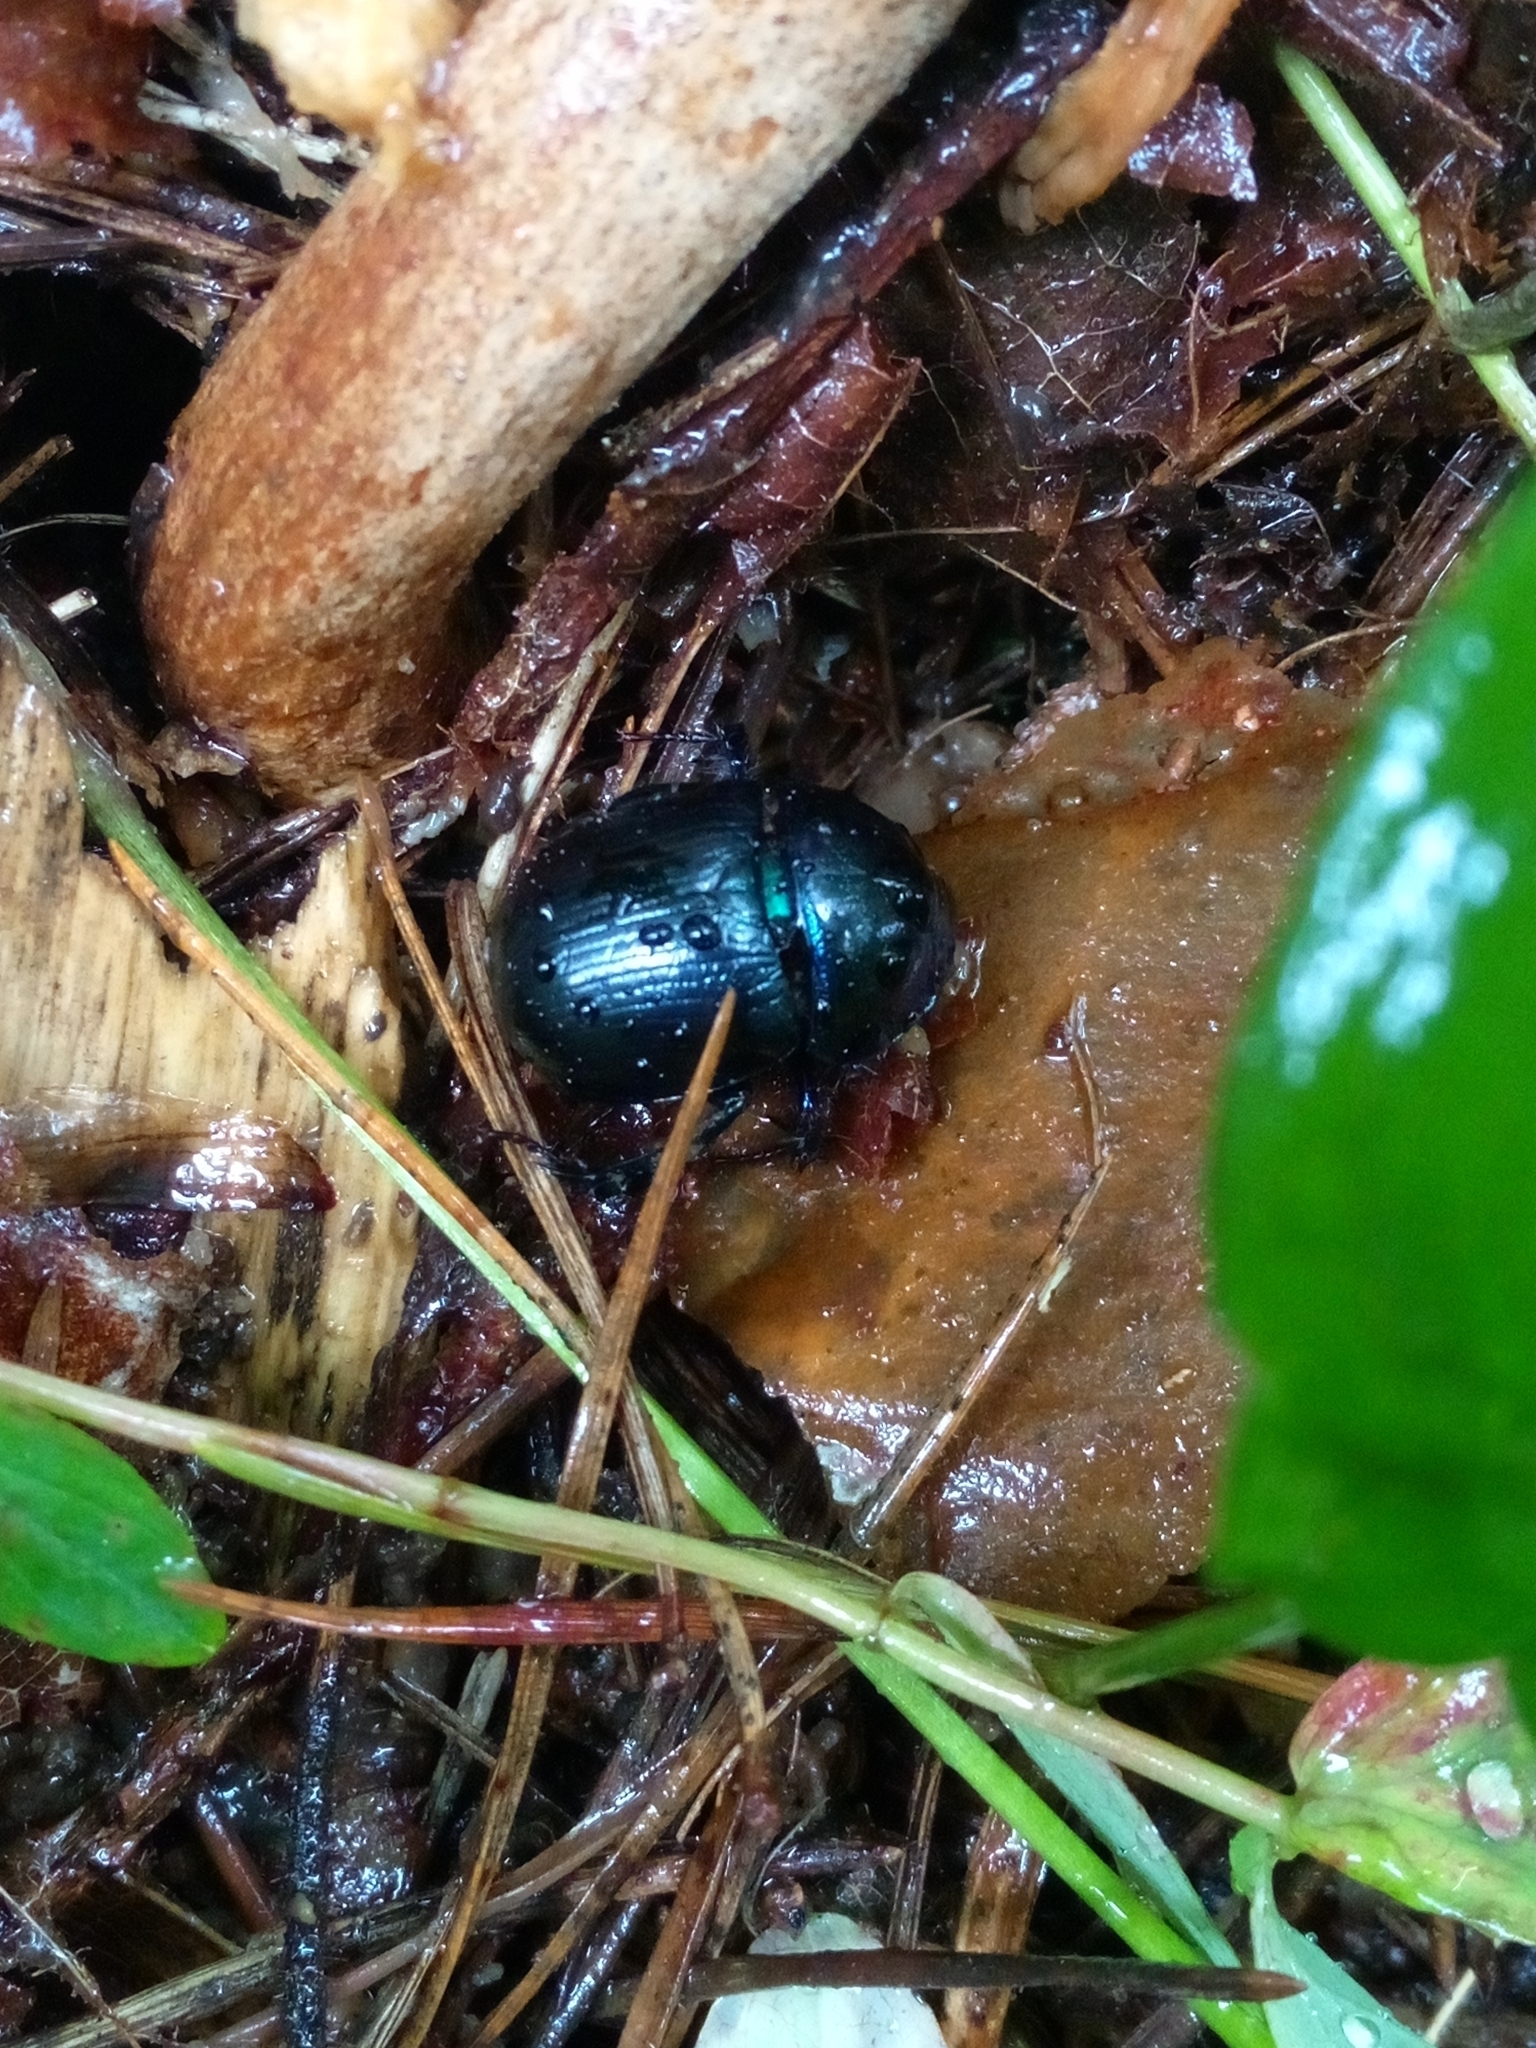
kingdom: Animalia
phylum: Arthropoda
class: Insecta
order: Coleoptera
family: Geotrupidae
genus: Anoplotrupes
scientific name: Anoplotrupes stercorosus
